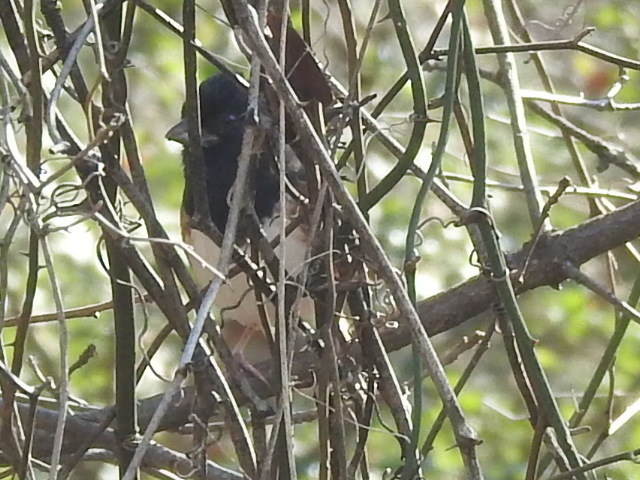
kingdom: Animalia
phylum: Chordata
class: Aves
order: Passeriformes
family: Passerellidae
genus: Pipilo
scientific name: Pipilo maculatus
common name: Spotted towhee
